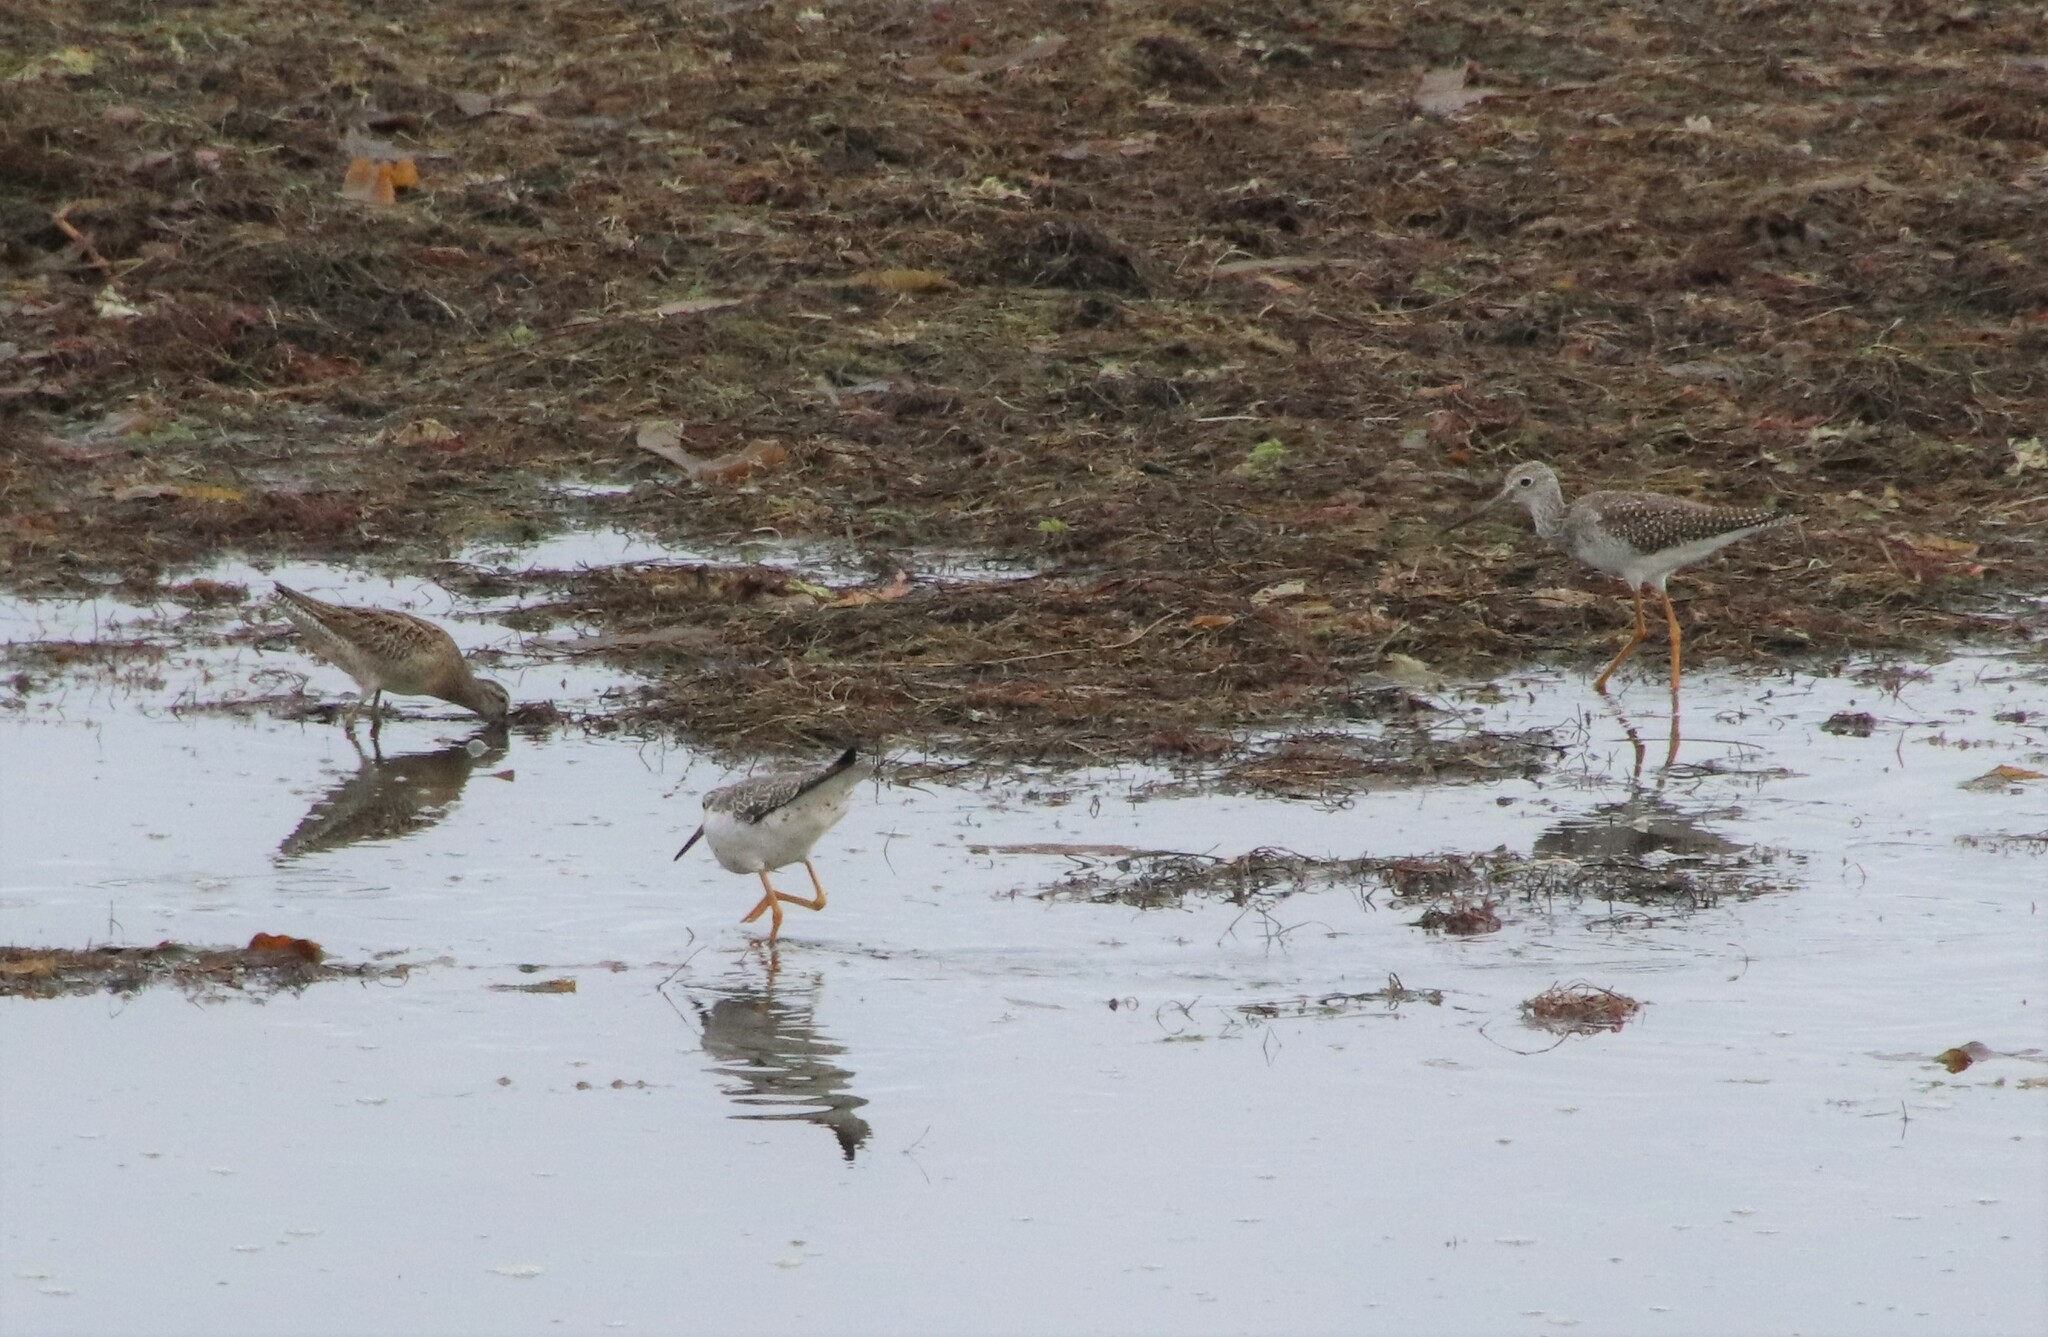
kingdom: Animalia
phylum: Chordata
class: Aves
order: Charadriiformes
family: Scolopacidae
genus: Tringa
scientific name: Tringa melanoleuca
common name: Greater yellowlegs
